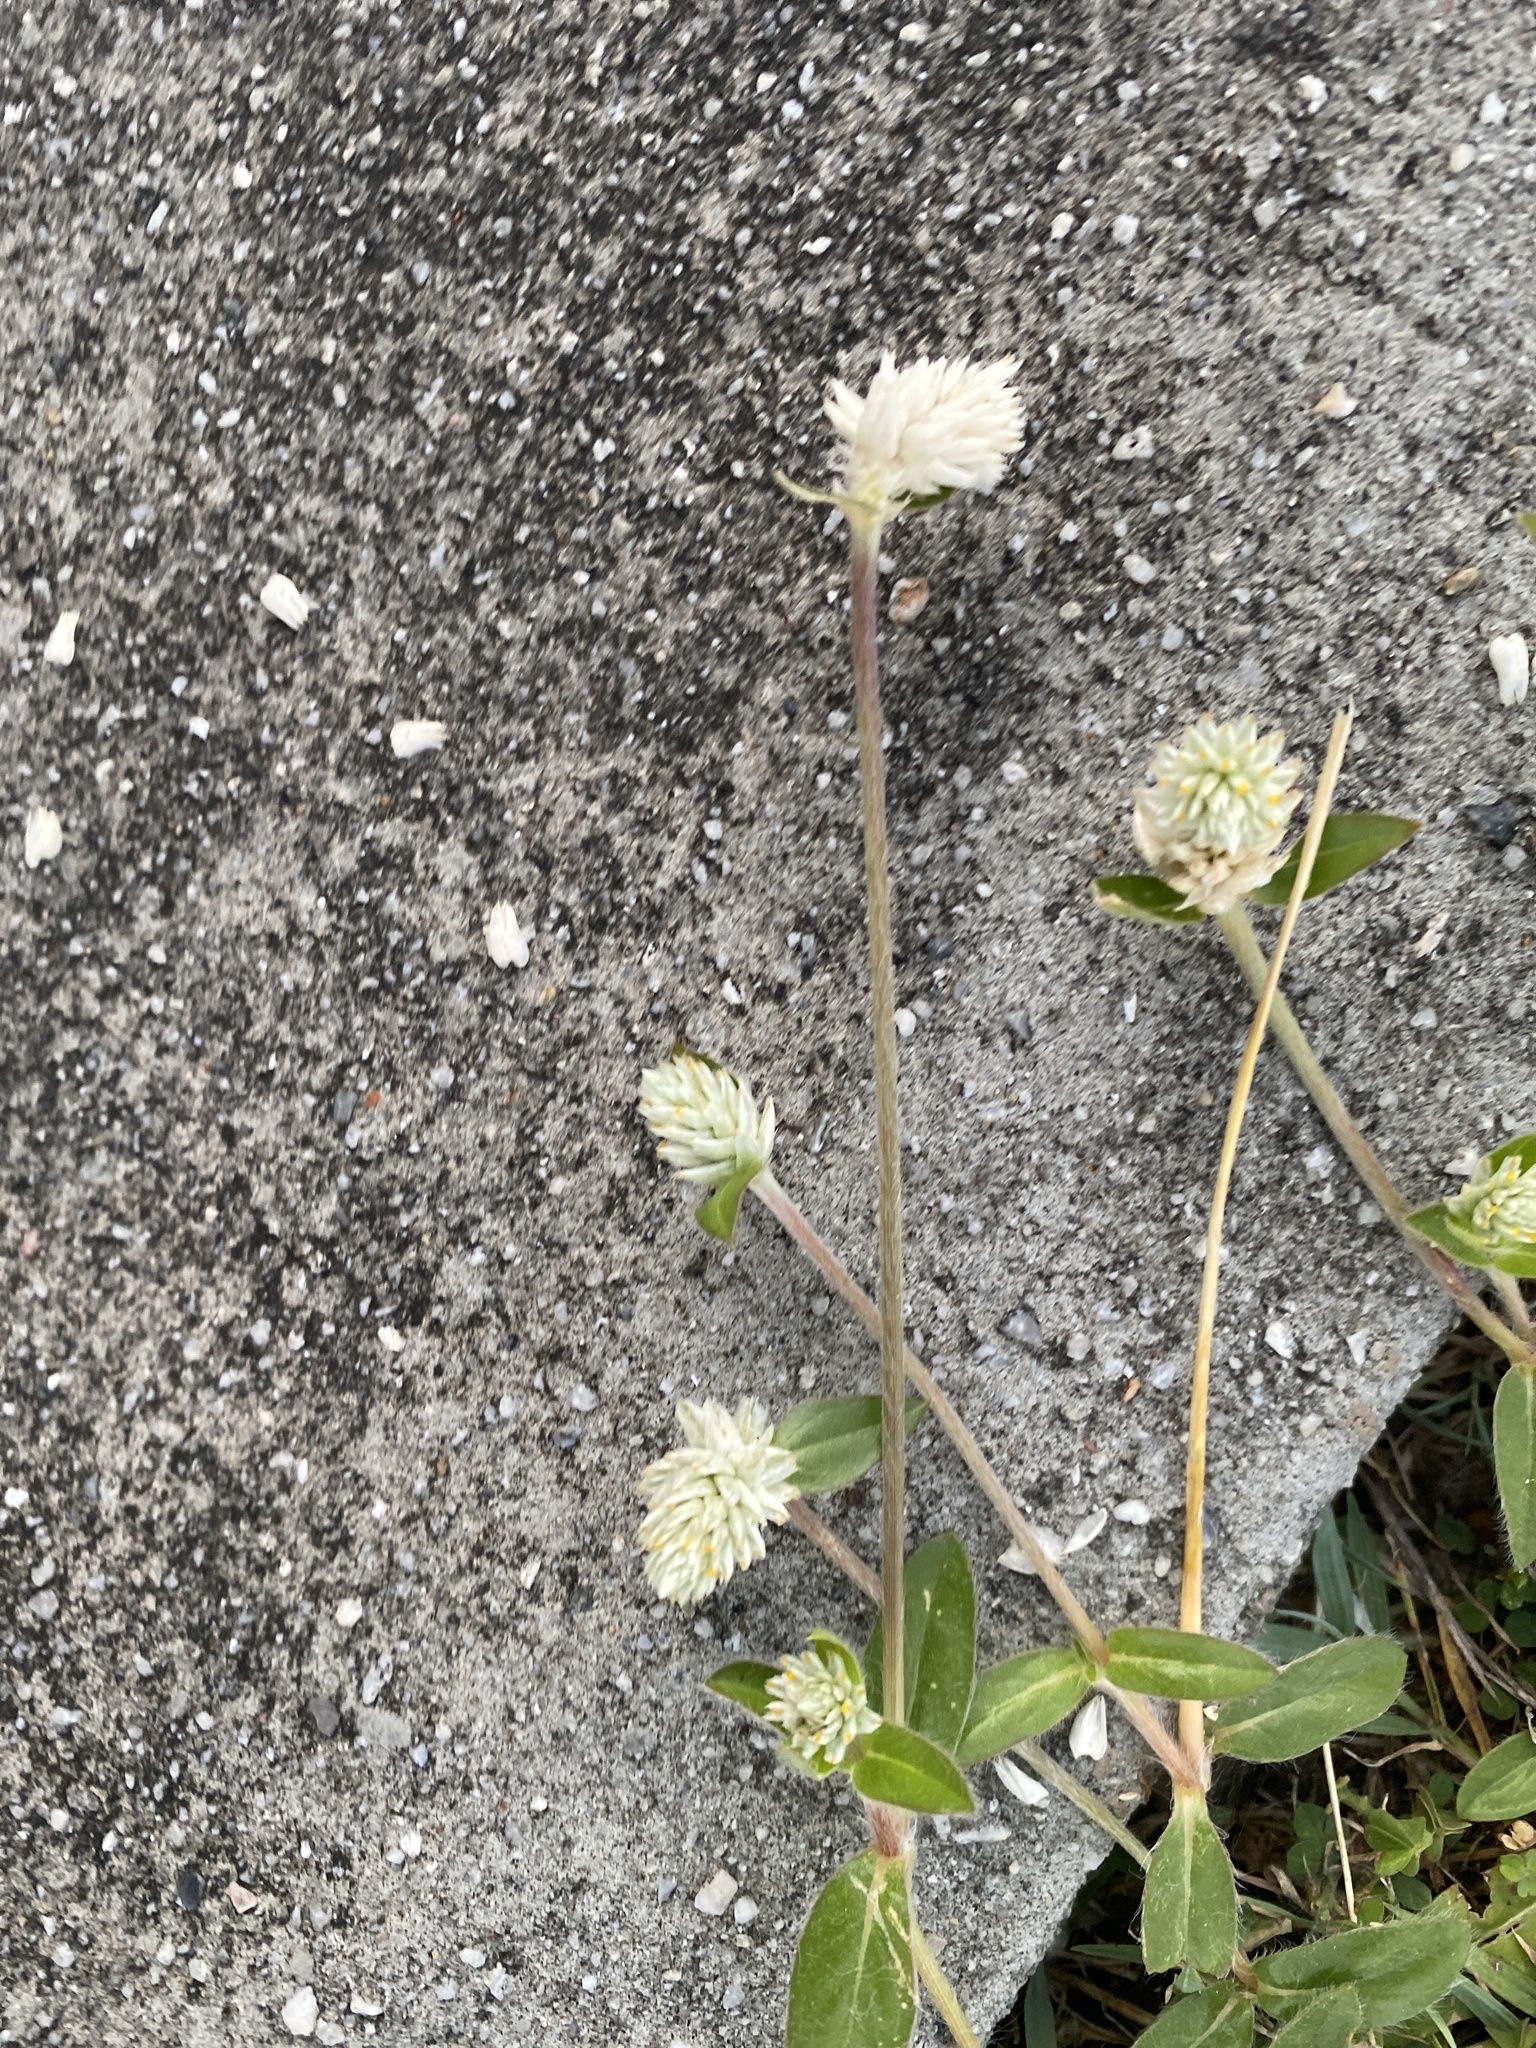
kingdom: Plantae
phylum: Tracheophyta
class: Magnoliopsida
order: Caryophyllales
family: Amaranthaceae
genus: Gomphrena
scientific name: Gomphrena celosioides
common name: Gomphrena-weed
